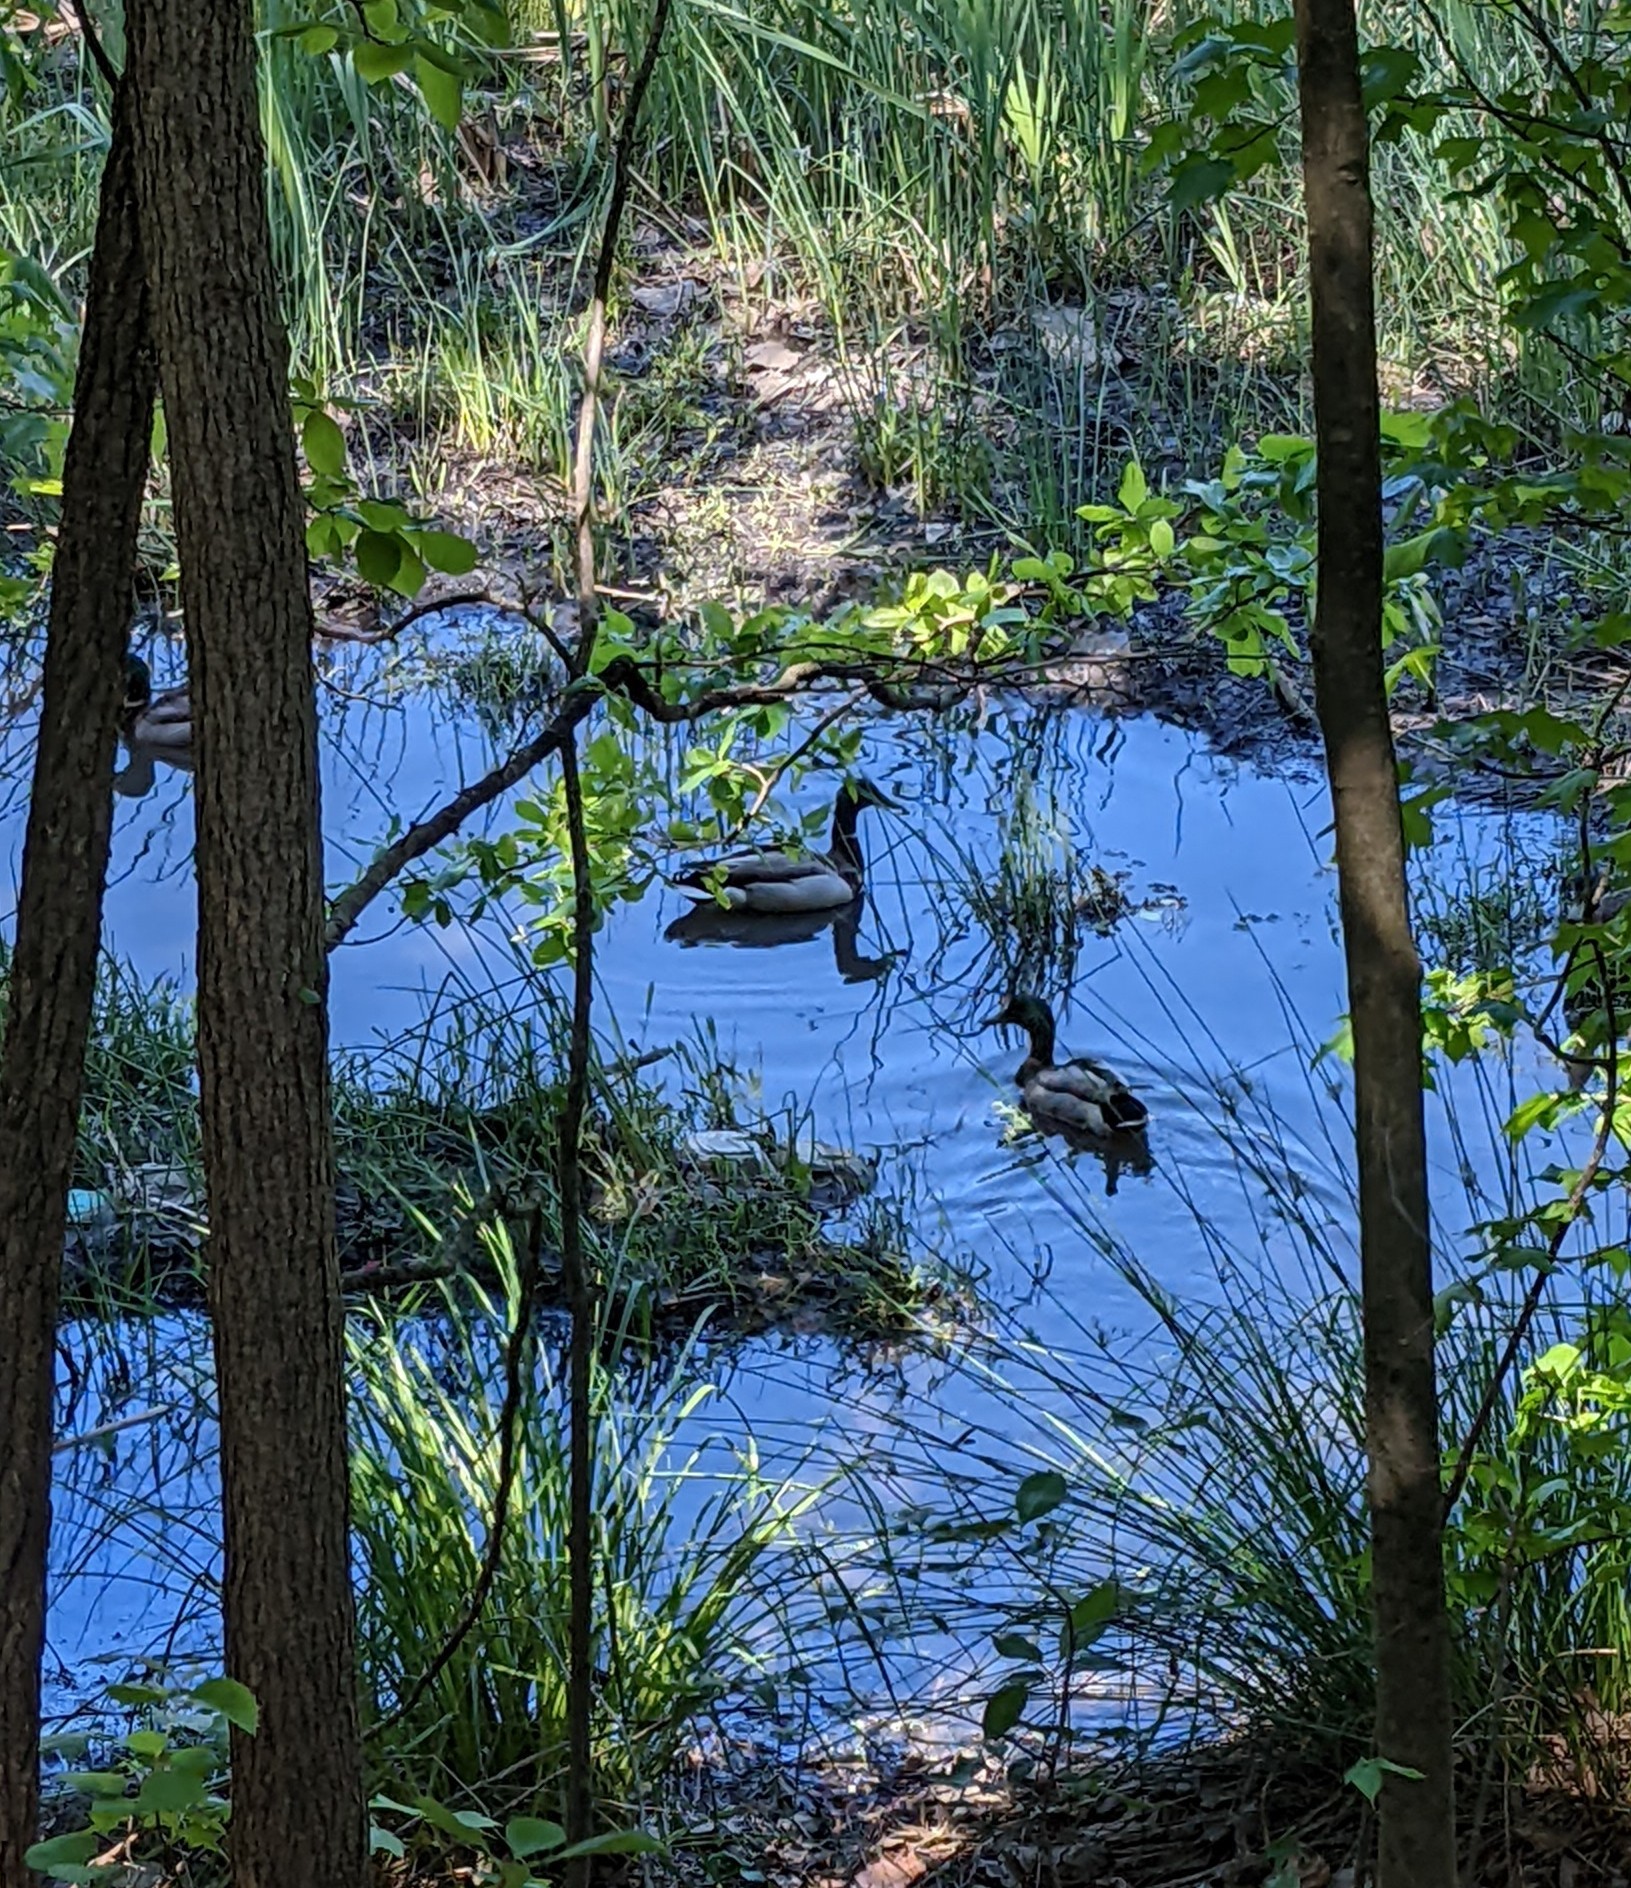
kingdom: Animalia
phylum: Chordata
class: Aves
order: Anseriformes
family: Anatidae
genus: Anas
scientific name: Anas platyrhynchos
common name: Mallard
